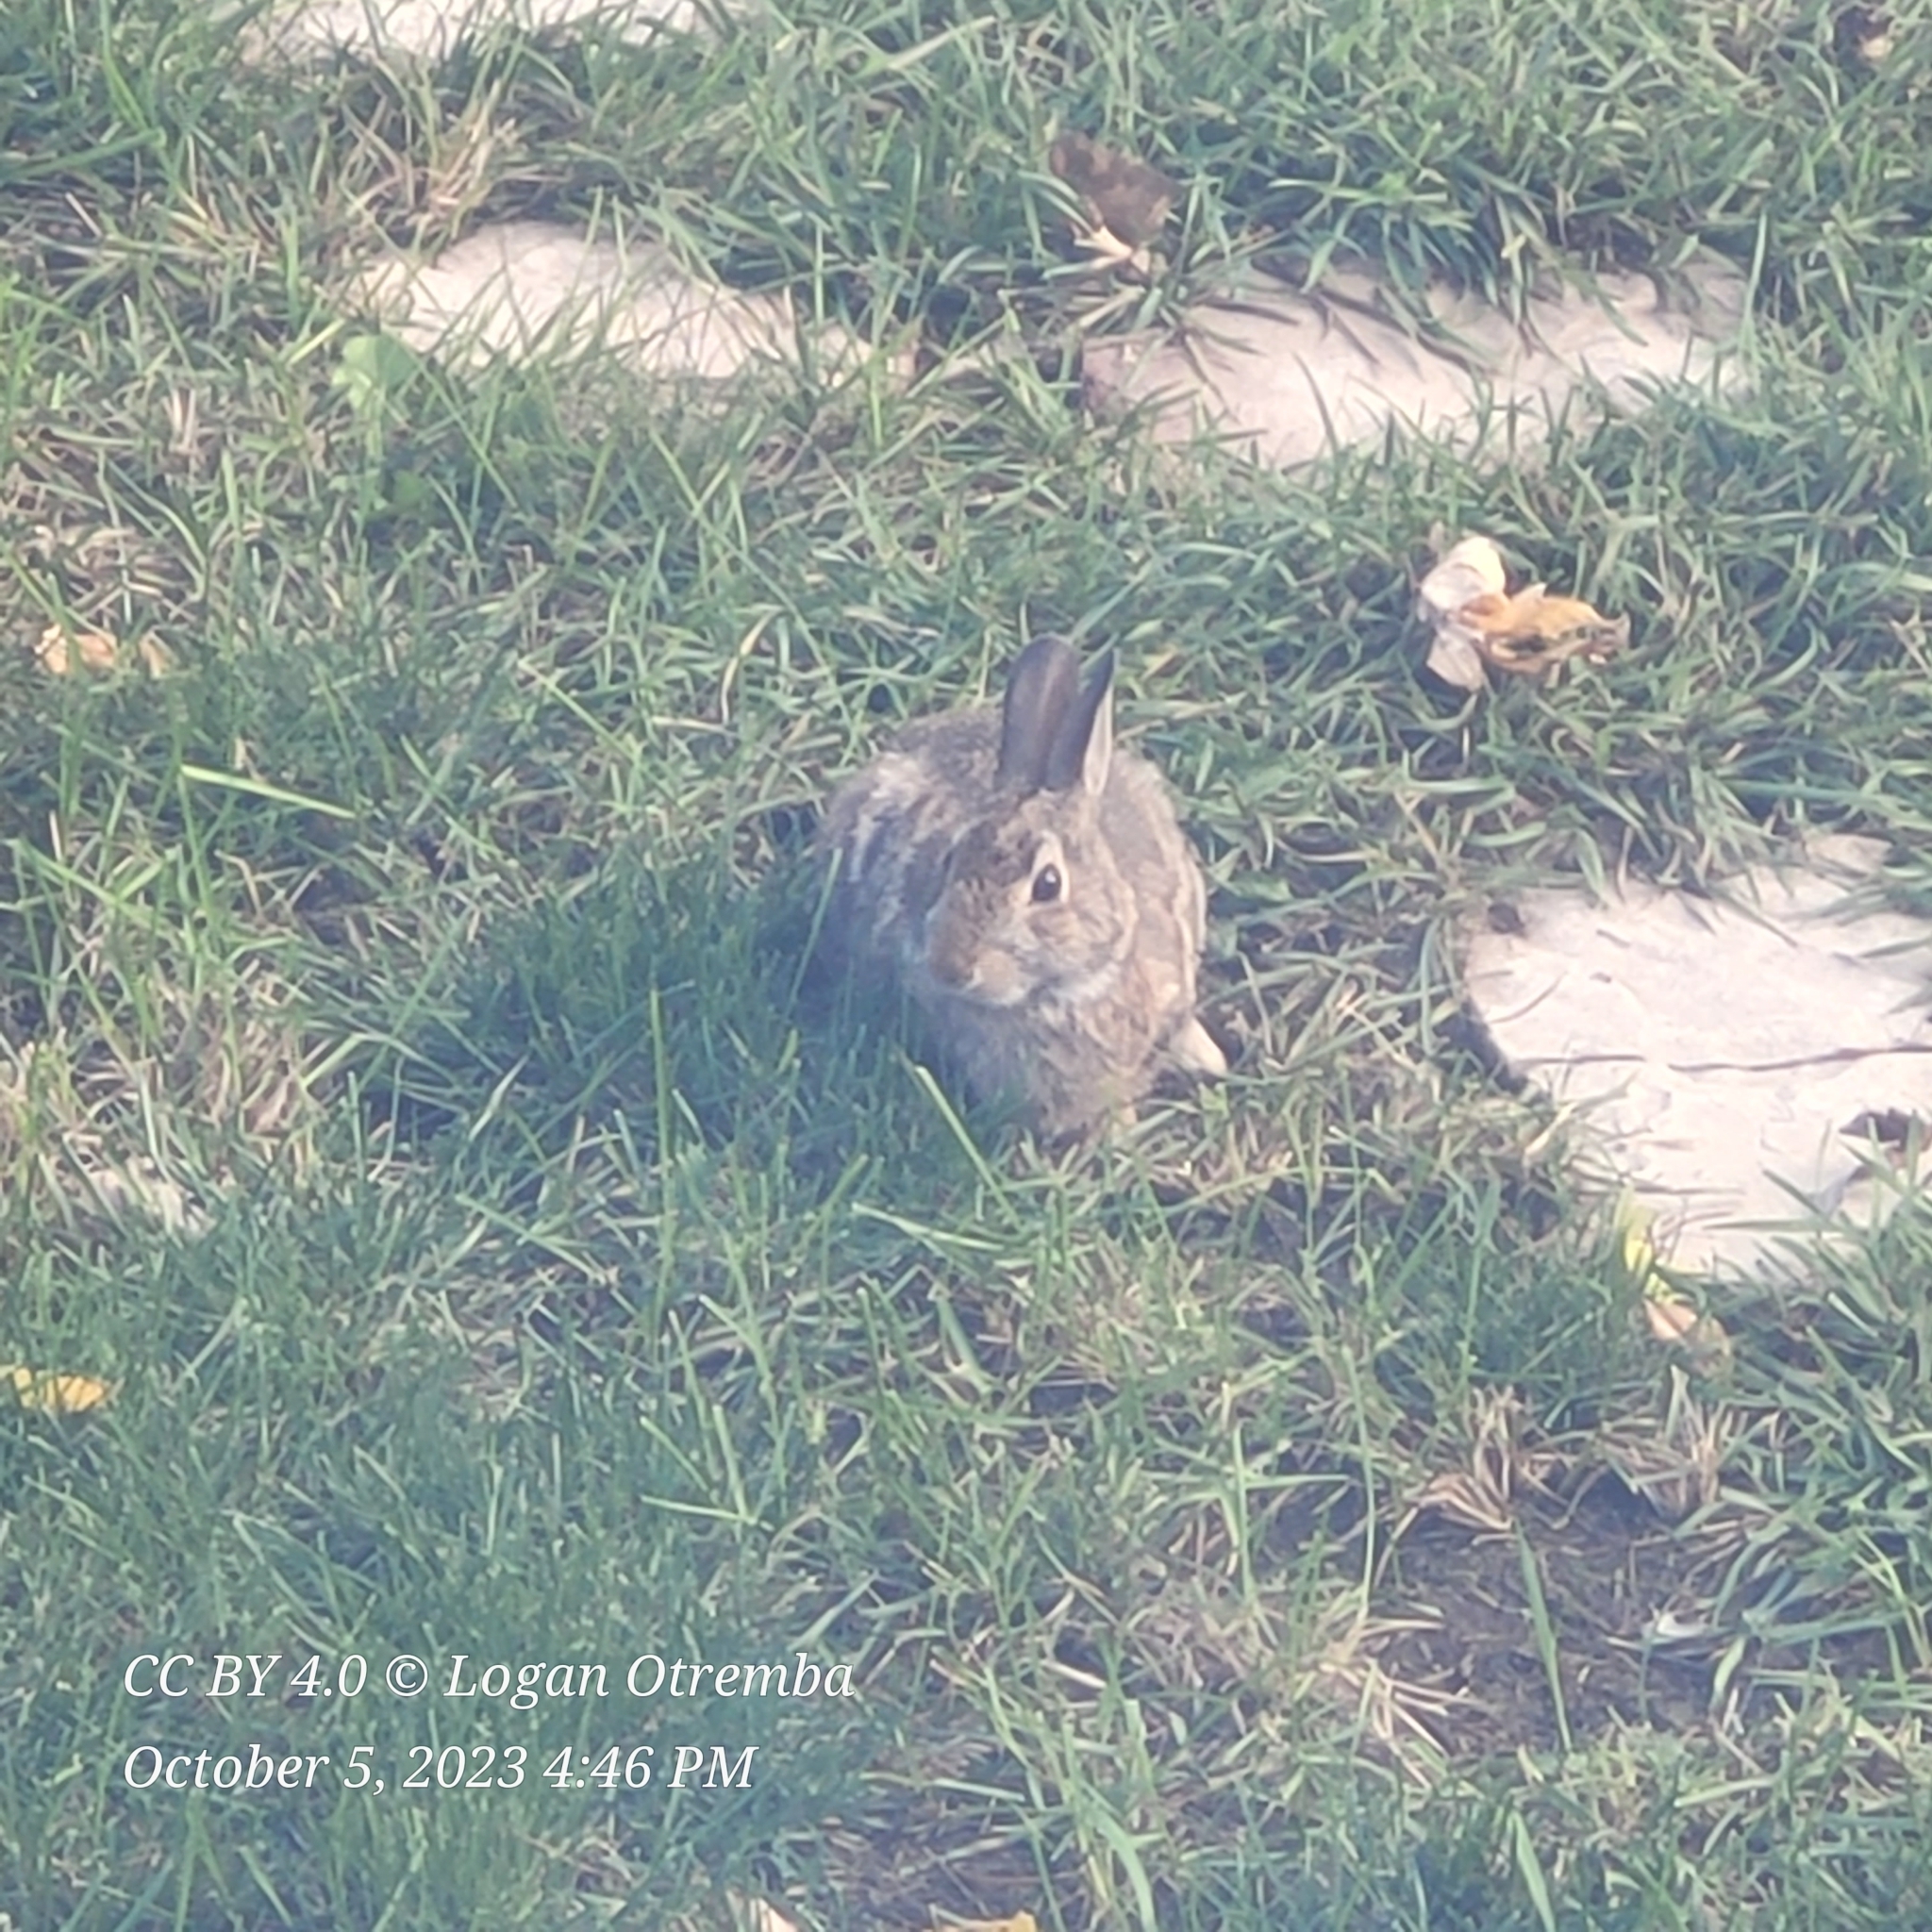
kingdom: Animalia
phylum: Chordata
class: Mammalia
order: Lagomorpha
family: Leporidae
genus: Sylvilagus
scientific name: Sylvilagus floridanus
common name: Eastern cottontail
